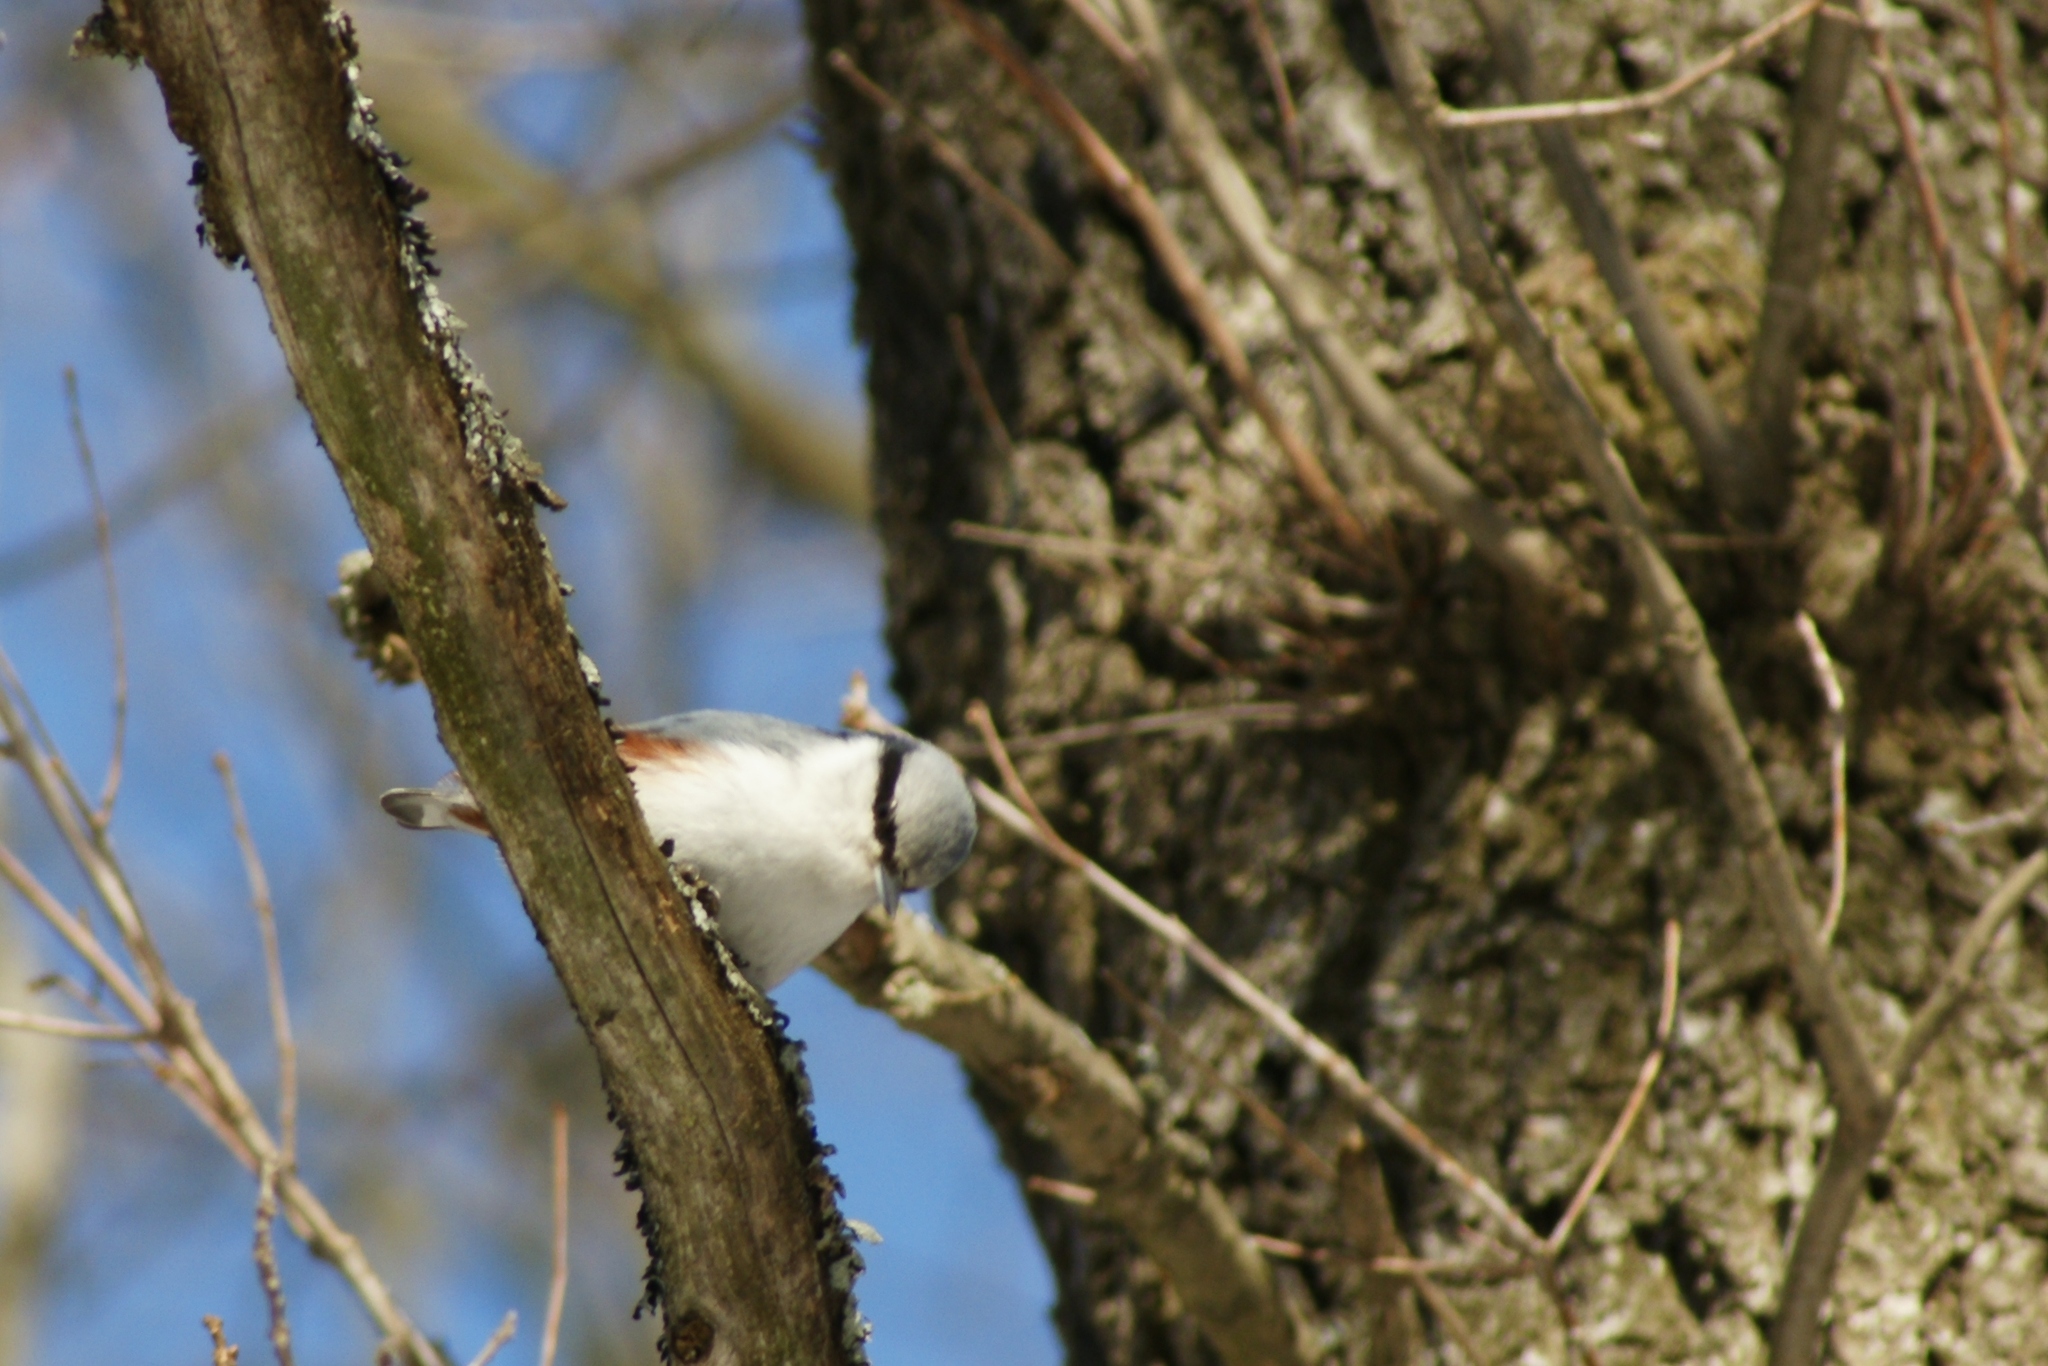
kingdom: Animalia
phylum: Chordata
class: Aves
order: Passeriformes
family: Sittidae
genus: Sitta
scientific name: Sitta europaea
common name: Eurasian nuthatch
